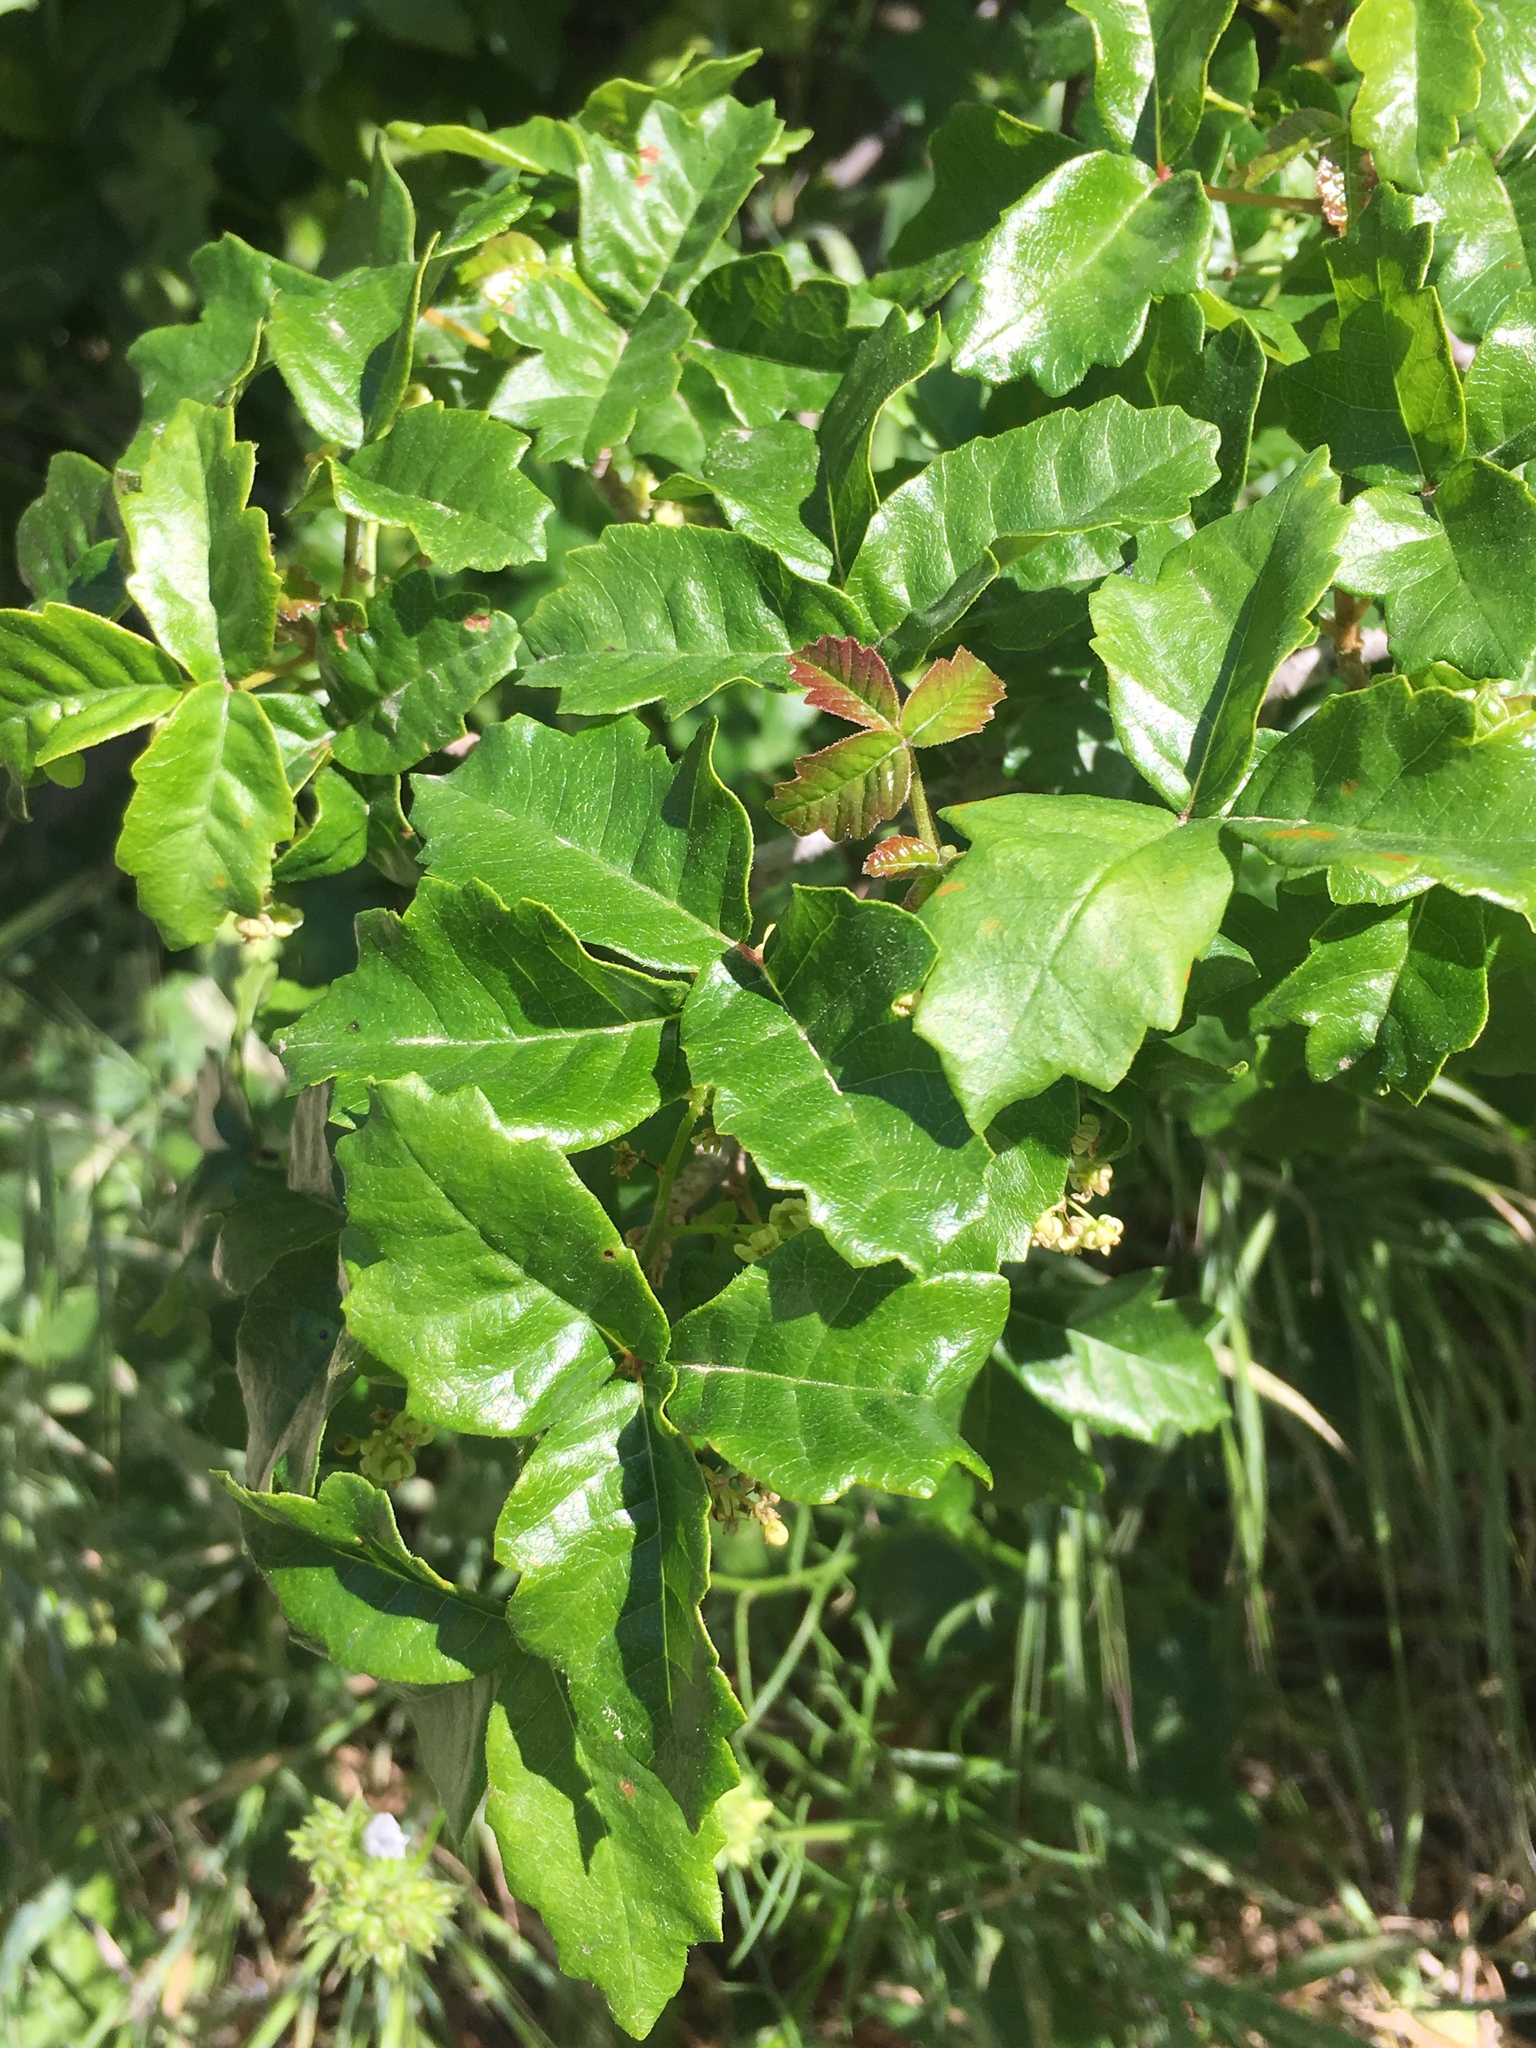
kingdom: Plantae
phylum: Tracheophyta
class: Magnoliopsida
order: Sapindales
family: Anacardiaceae
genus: Toxicodendron
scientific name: Toxicodendron diversilobum
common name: Pacific poison-oak
